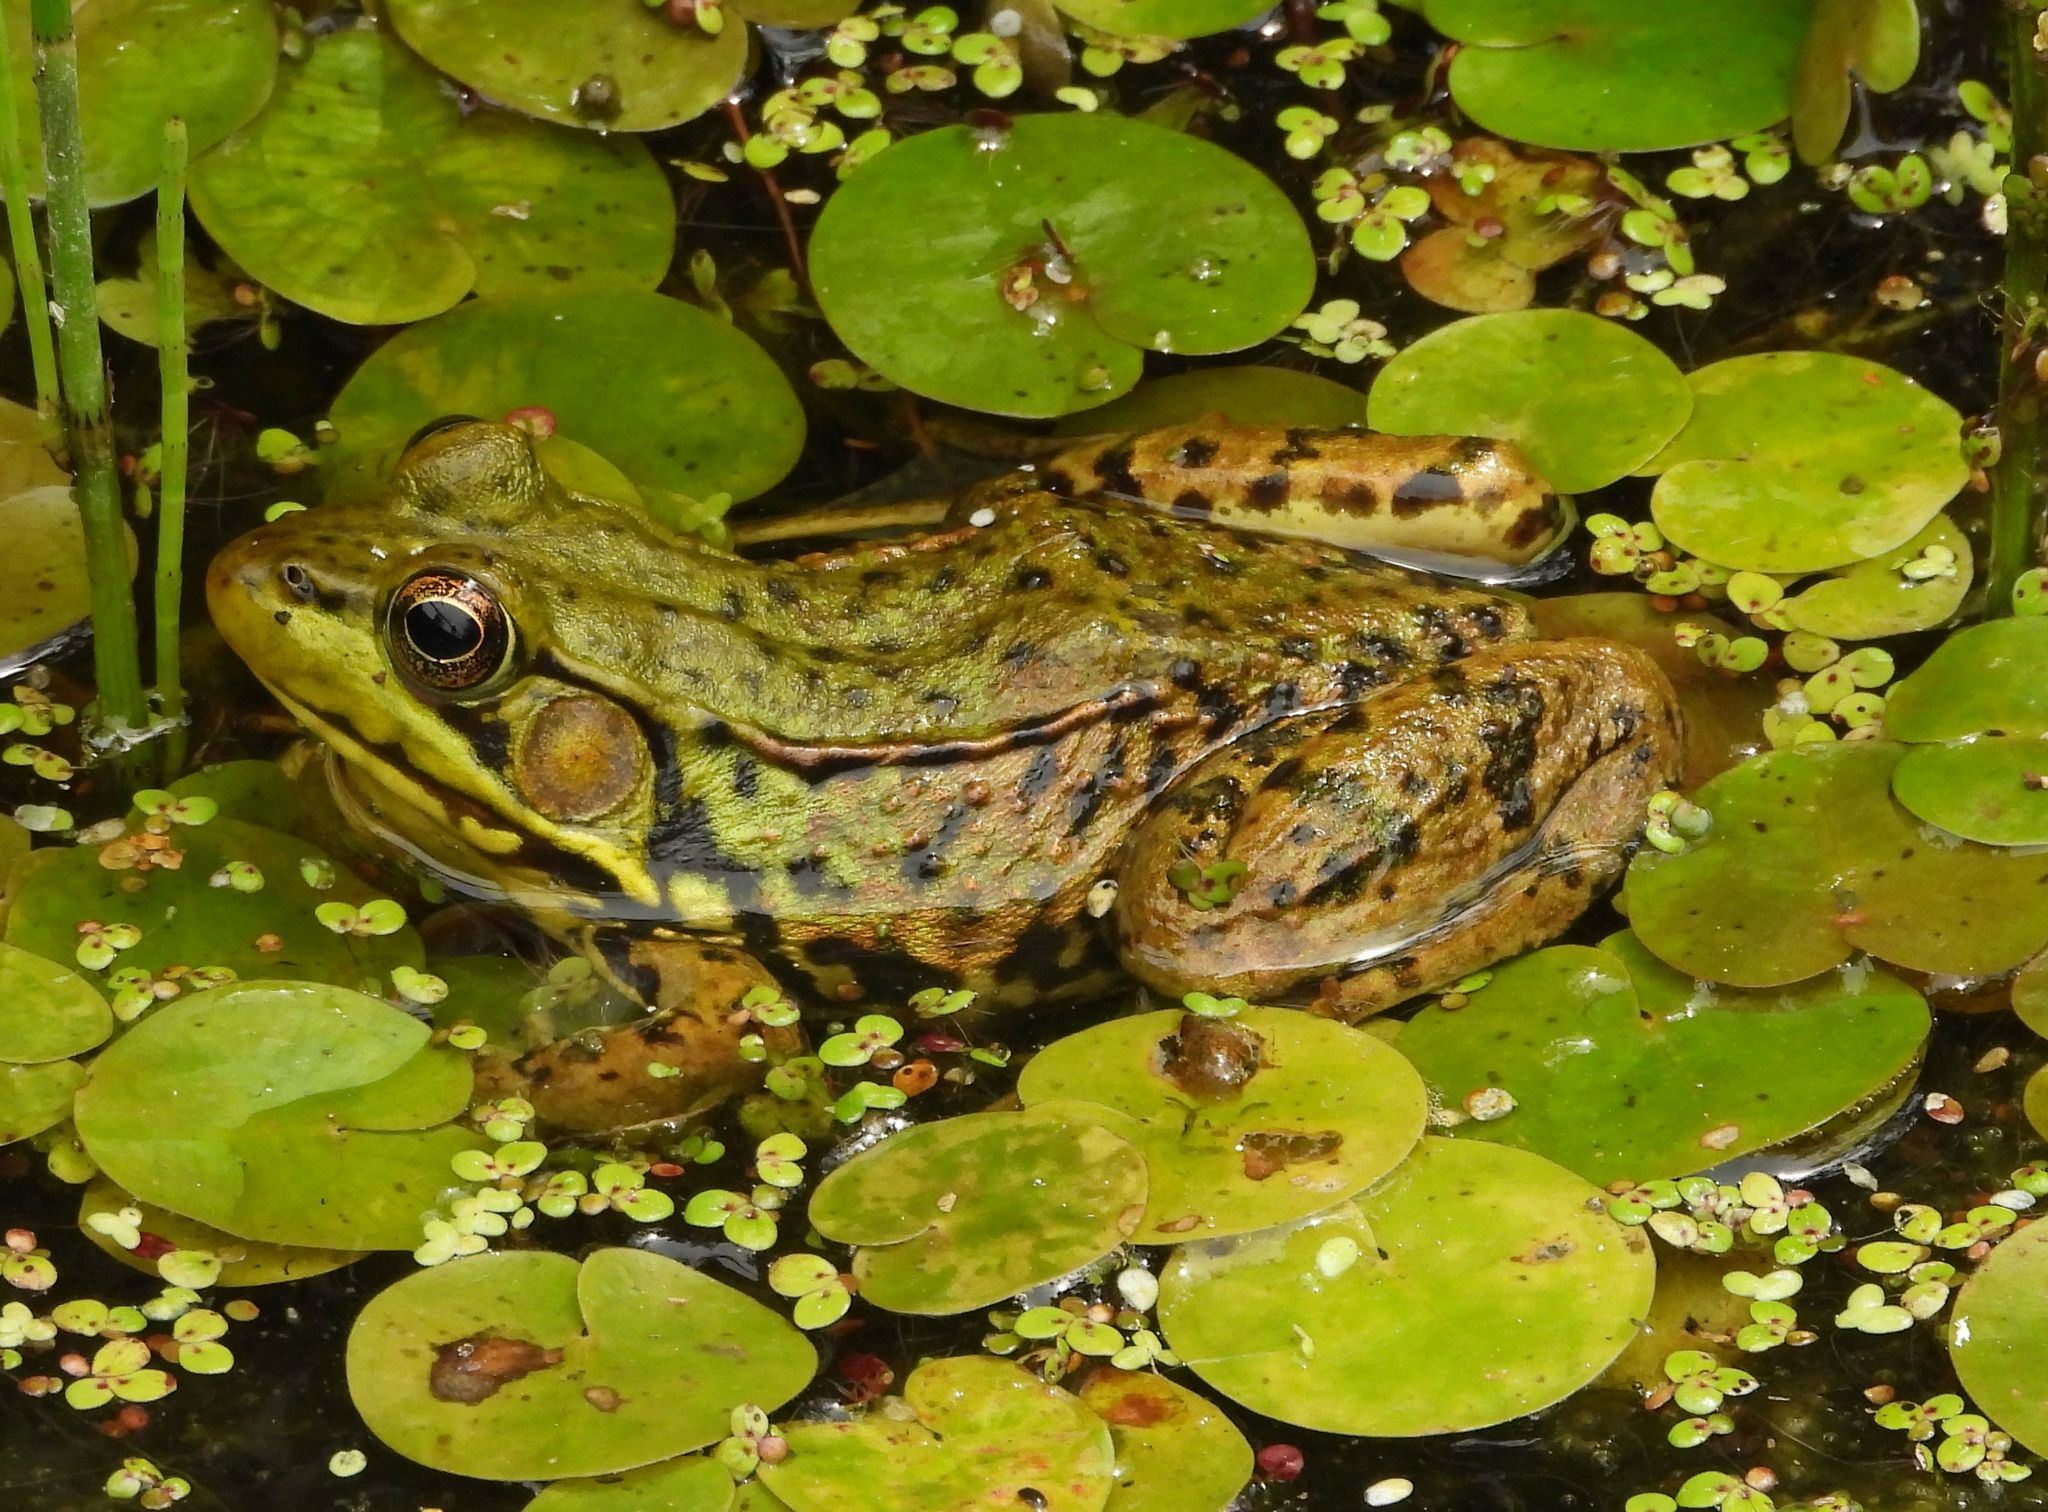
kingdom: Animalia
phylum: Chordata
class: Amphibia
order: Anura
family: Ranidae
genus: Lithobates
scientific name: Lithobates clamitans
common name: Green frog
